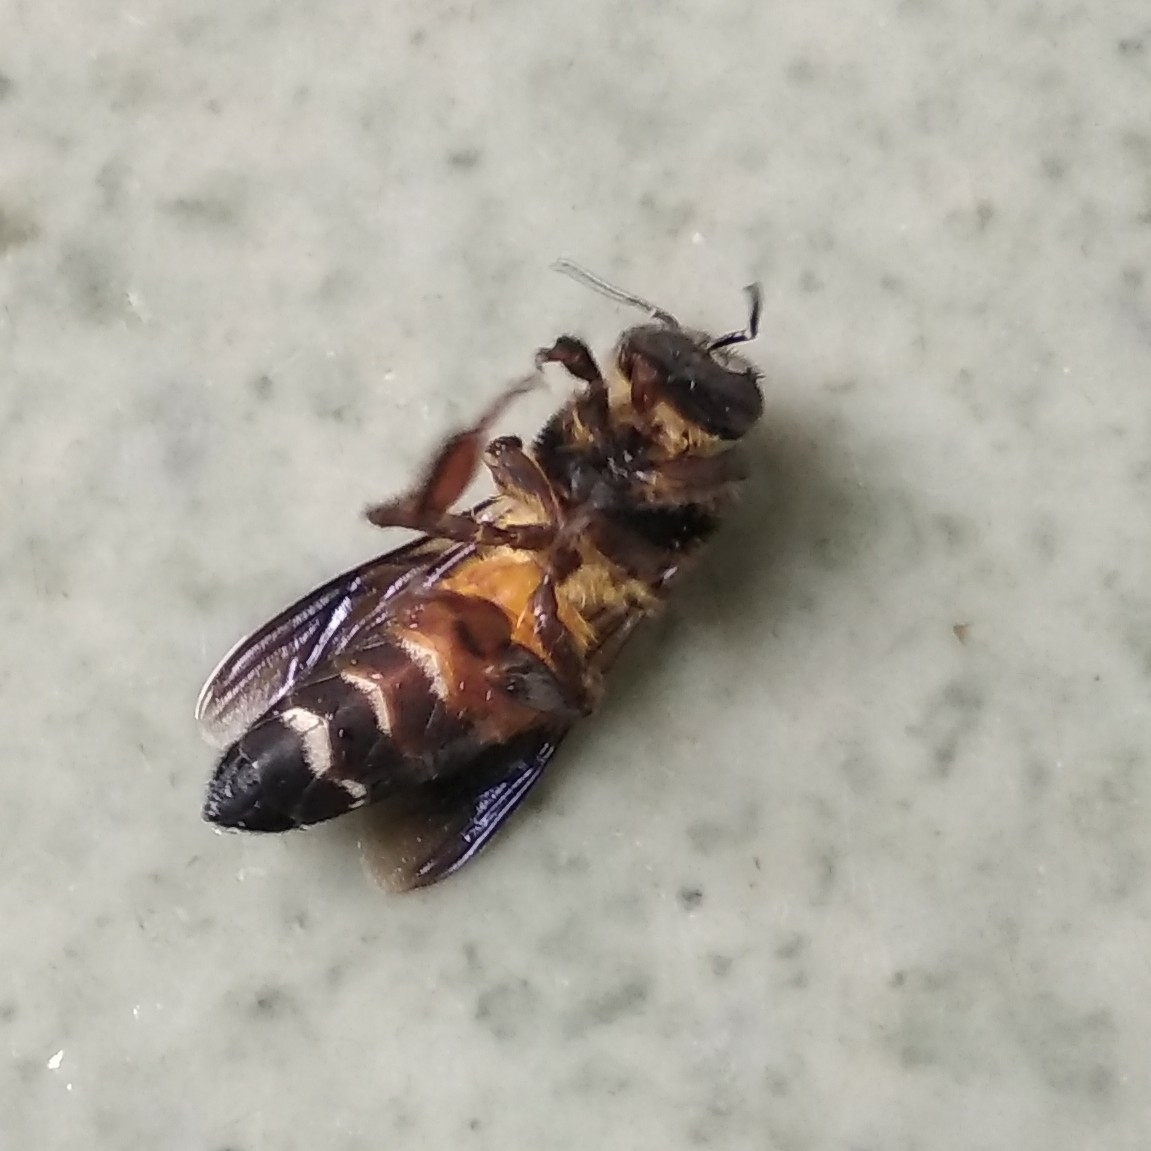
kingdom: Animalia
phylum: Arthropoda
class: Insecta
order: Hymenoptera
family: Apidae
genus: Apis
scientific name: Apis dorsata
